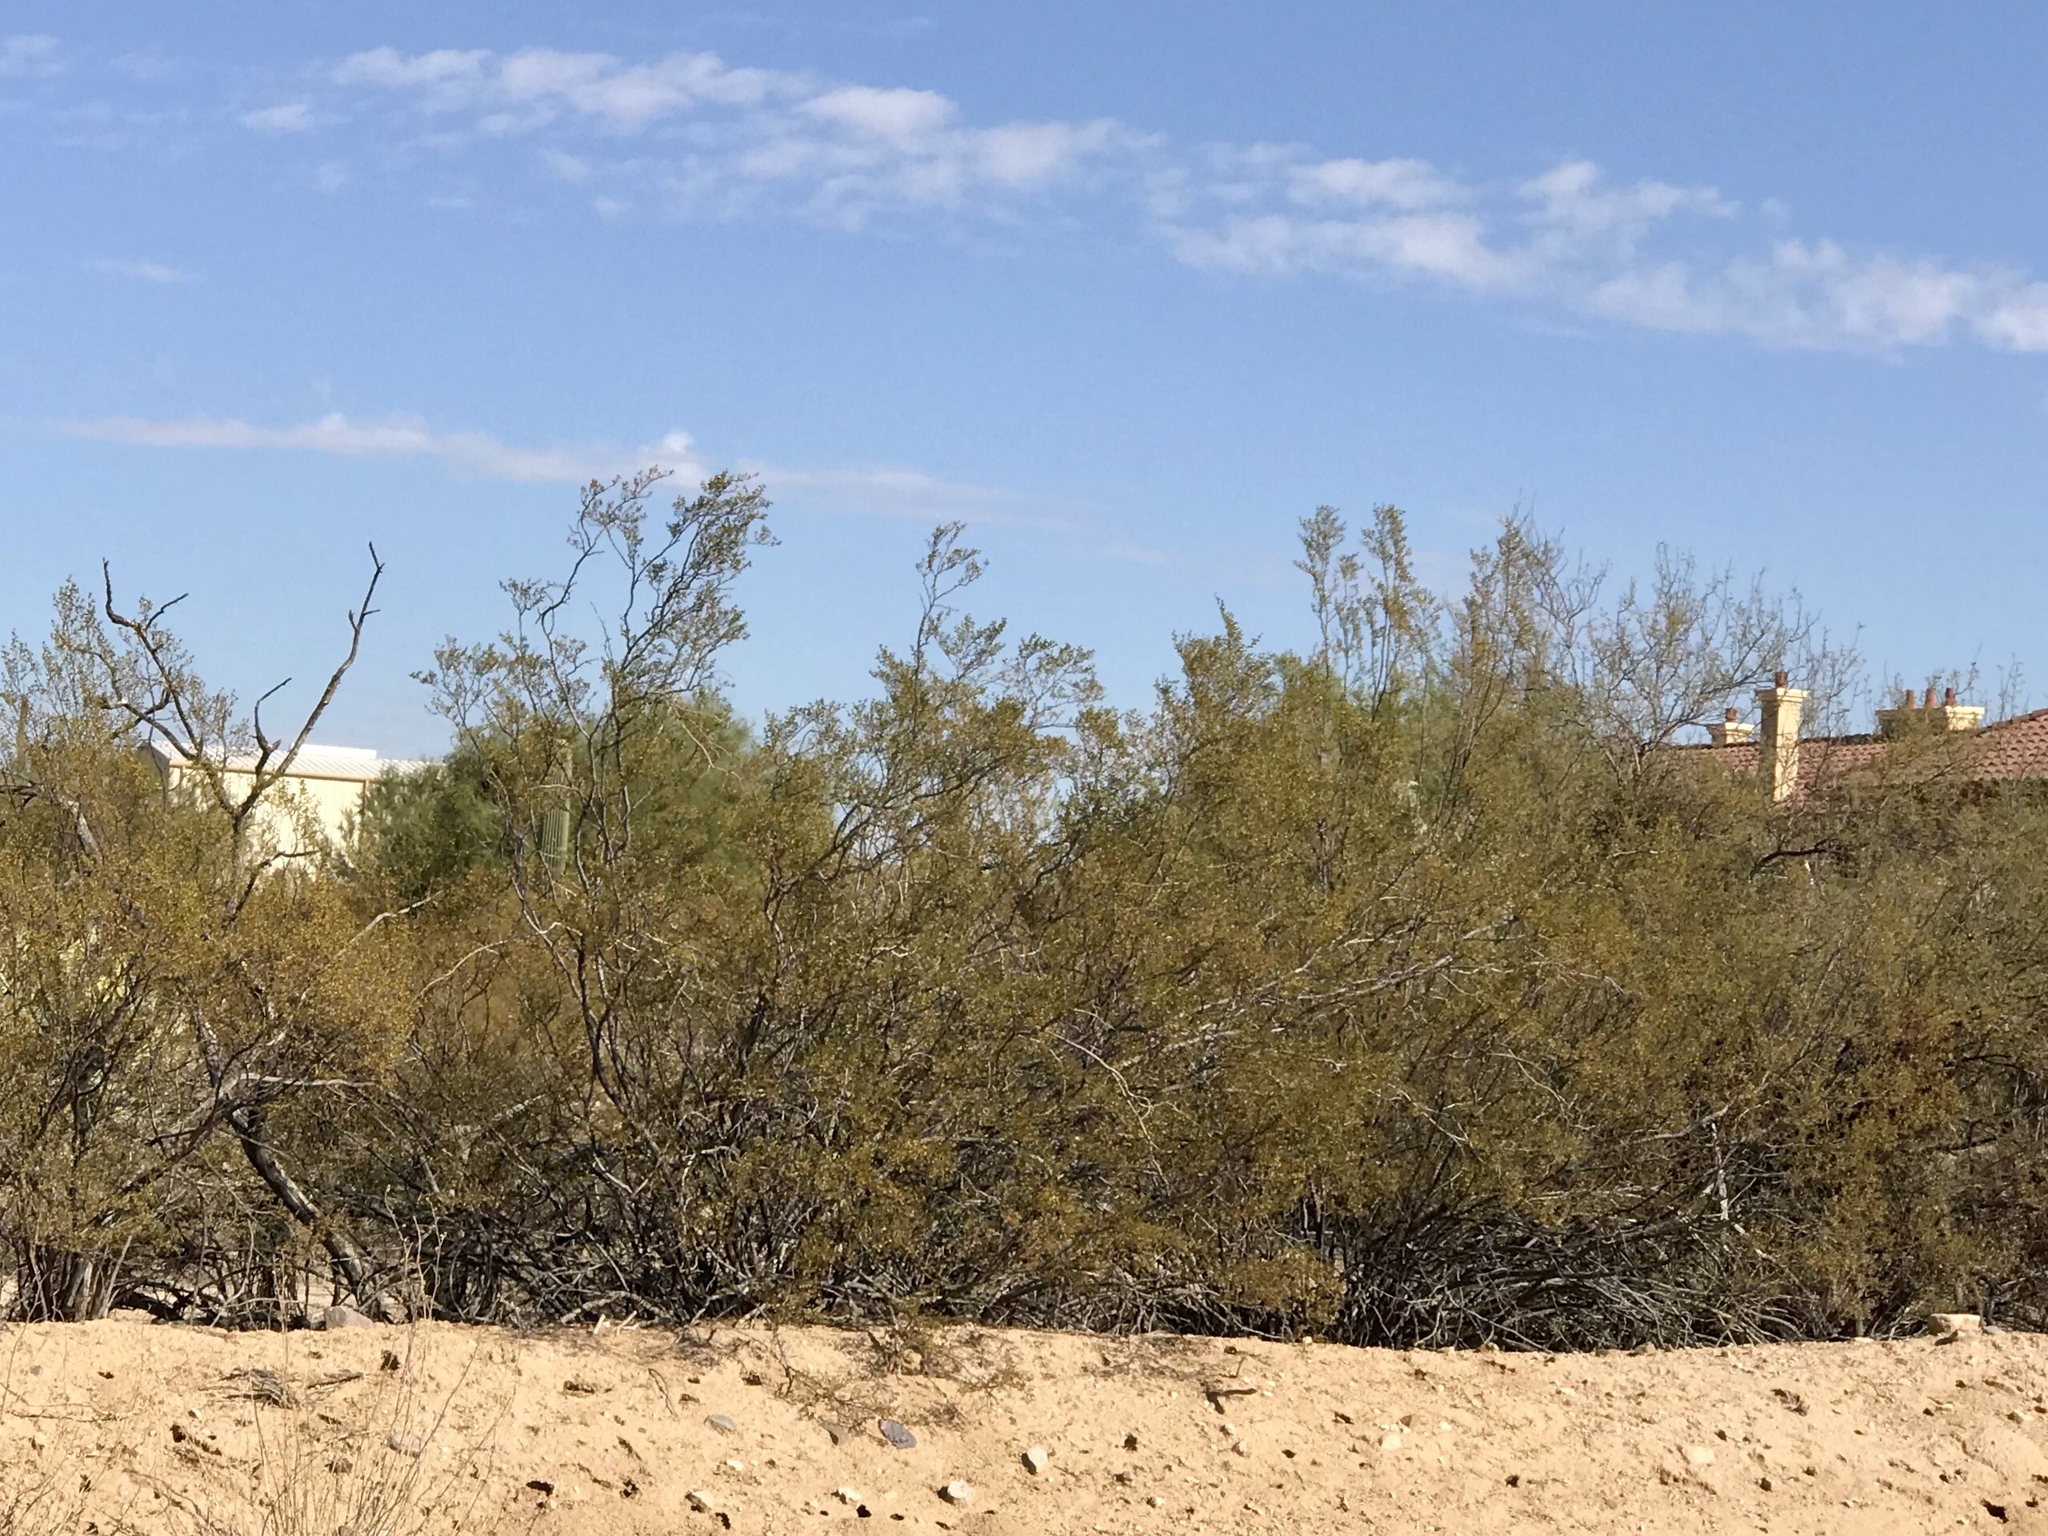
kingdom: Plantae
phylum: Tracheophyta
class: Magnoliopsida
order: Zygophyllales
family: Zygophyllaceae
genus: Larrea
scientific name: Larrea tridentata
